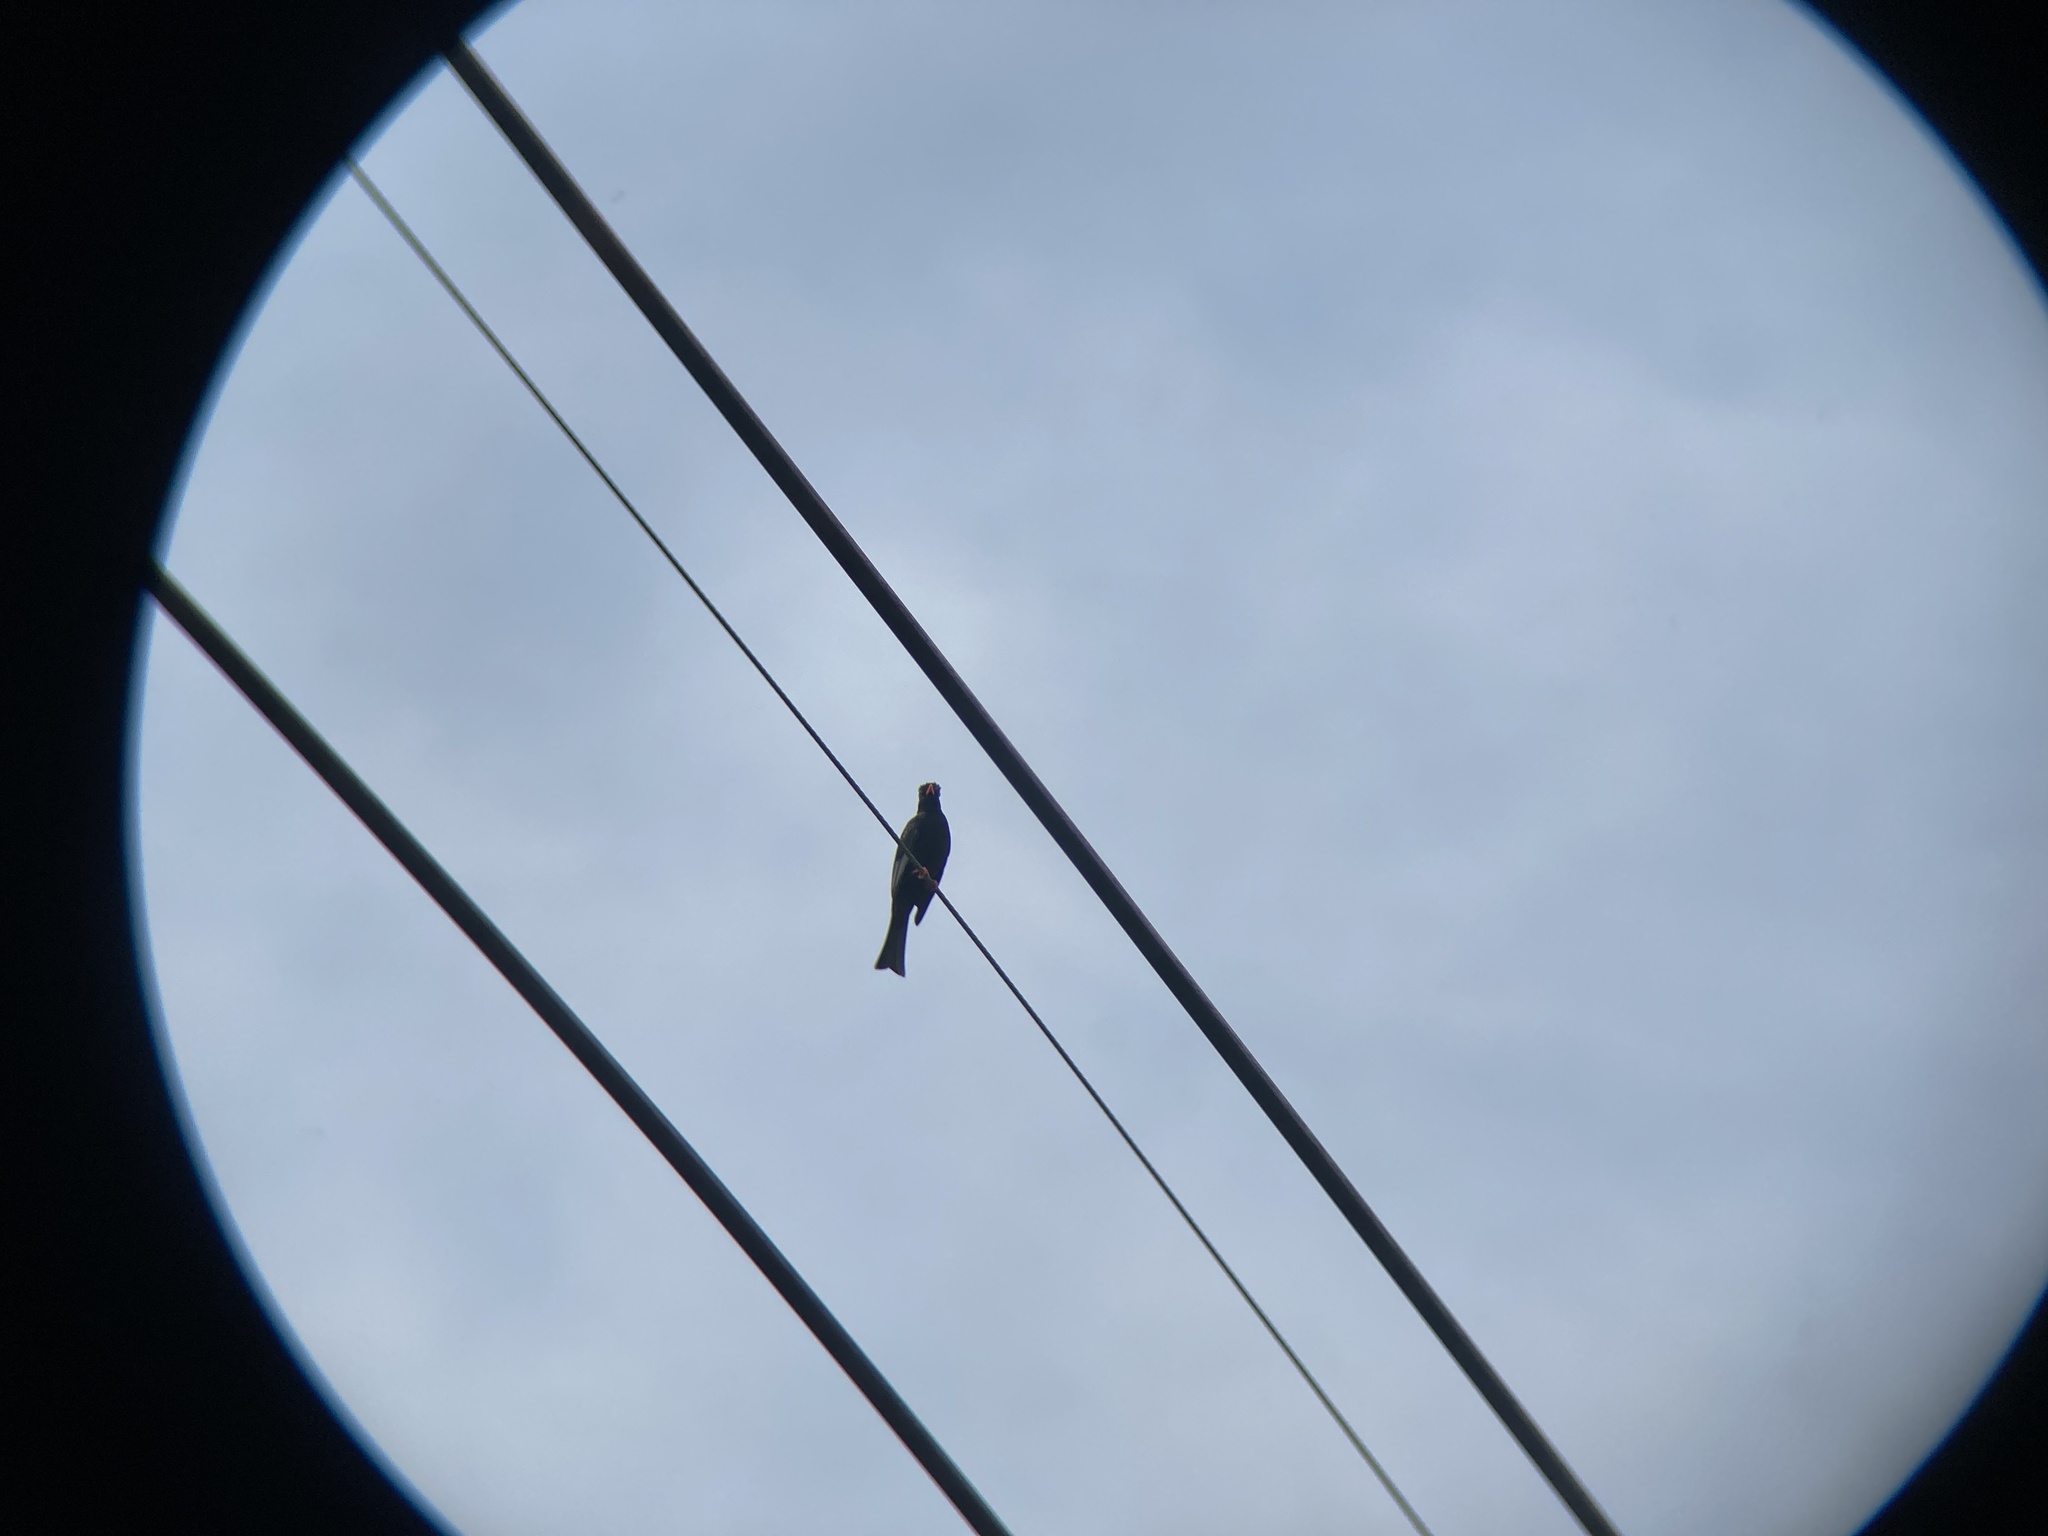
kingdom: Animalia
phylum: Chordata
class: Aves
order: Passeriformes
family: Pycnonotidae
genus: Hypsipetes
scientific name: Hypsipetes leucocephalus
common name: Black bulbul
